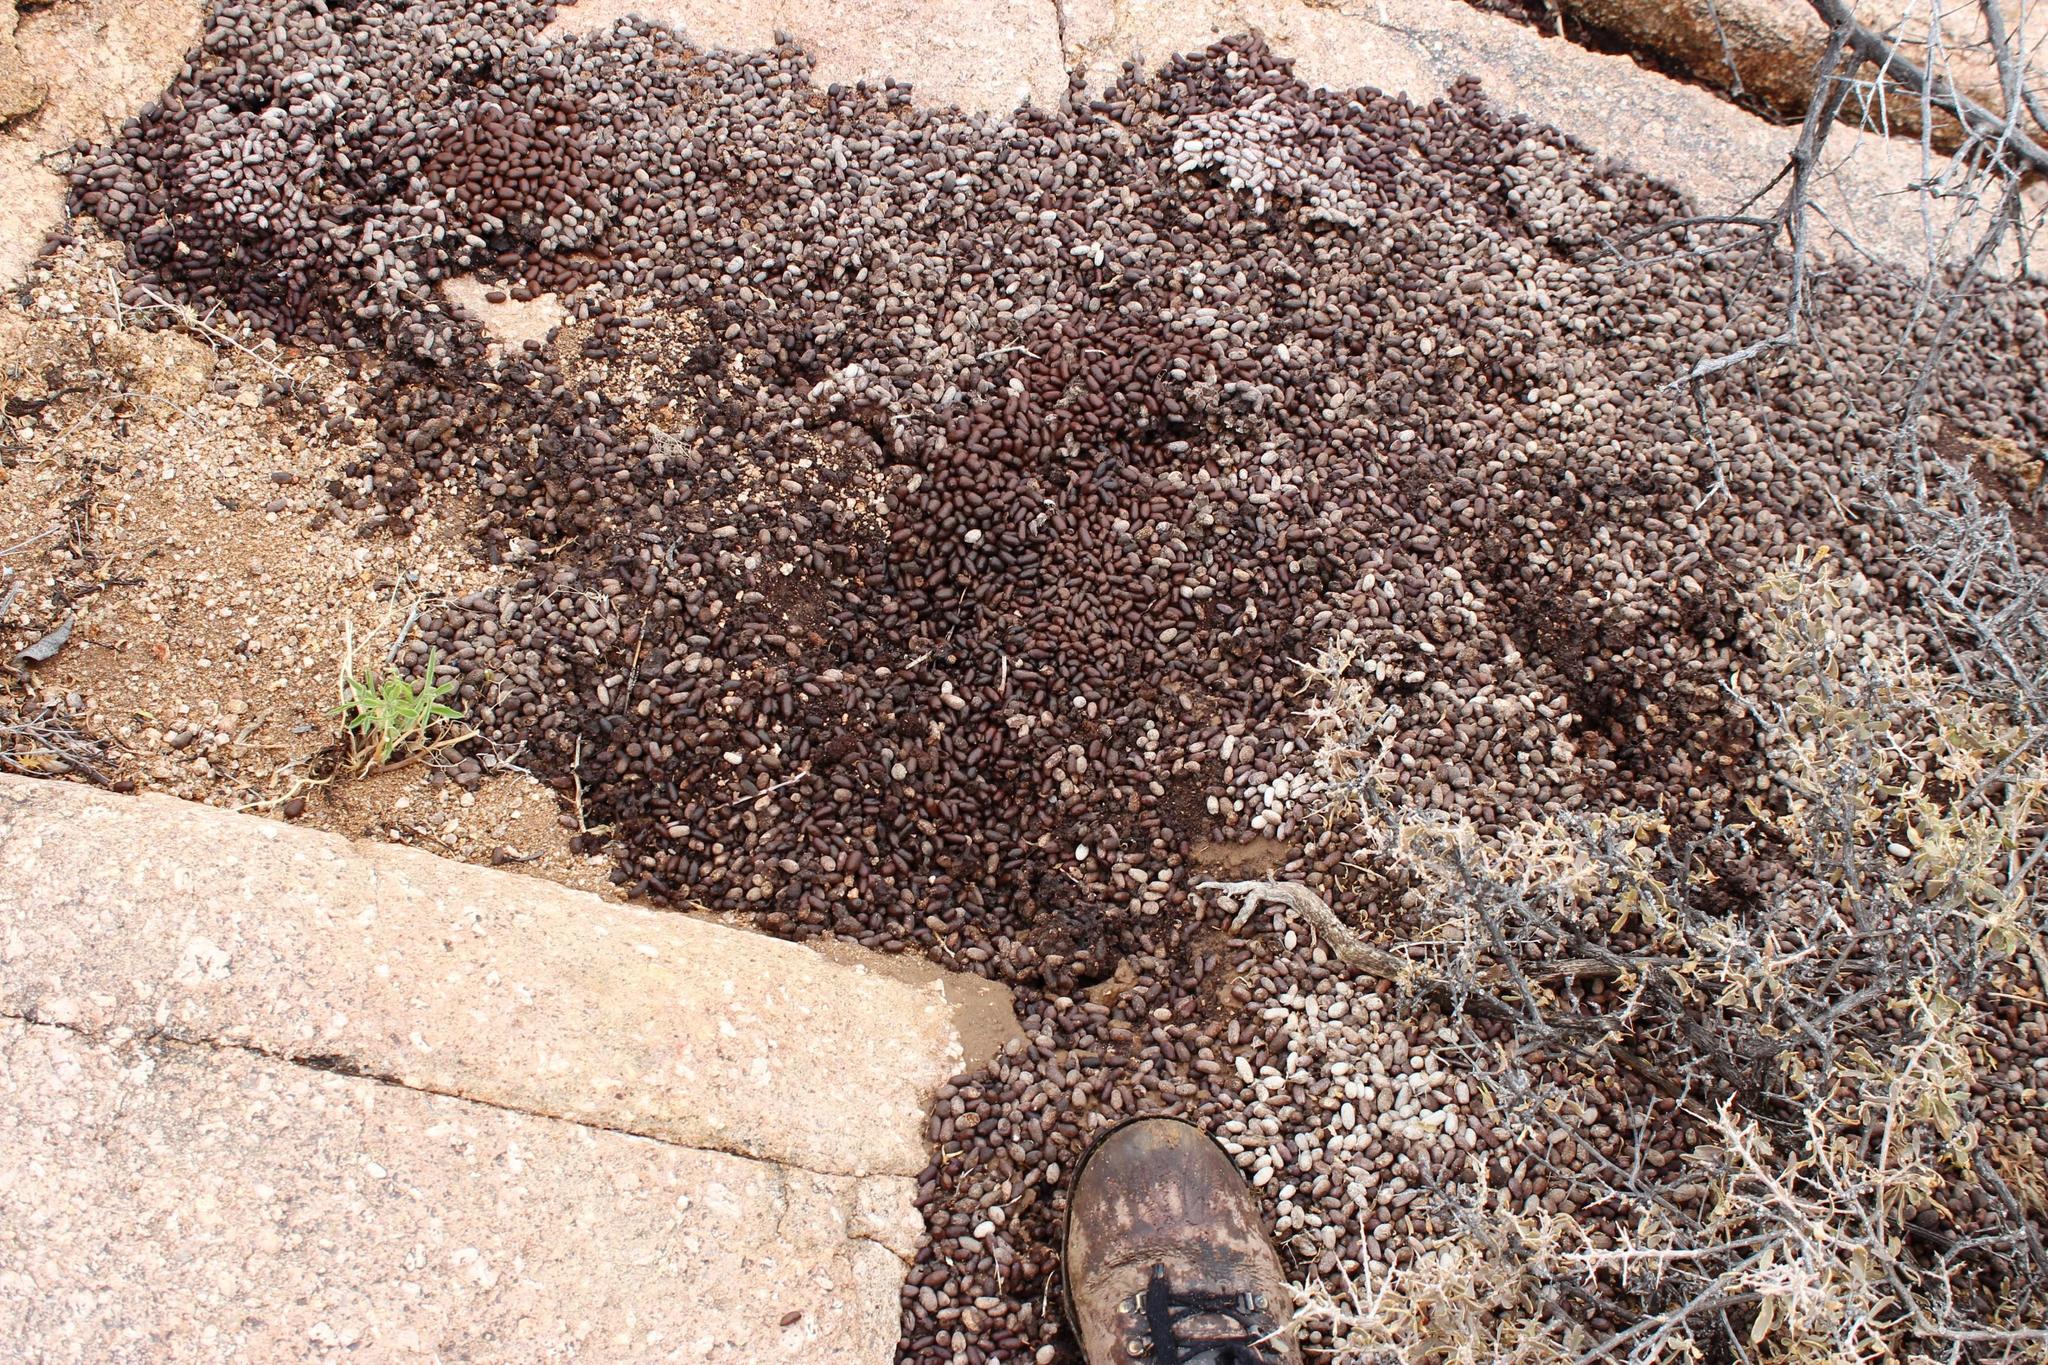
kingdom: Animalia
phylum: Chordata
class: Mammalia
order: Artiodactyla
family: Bovidae
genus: Oreotragus
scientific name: Oreotragus oreotragus
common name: Klipspringer
